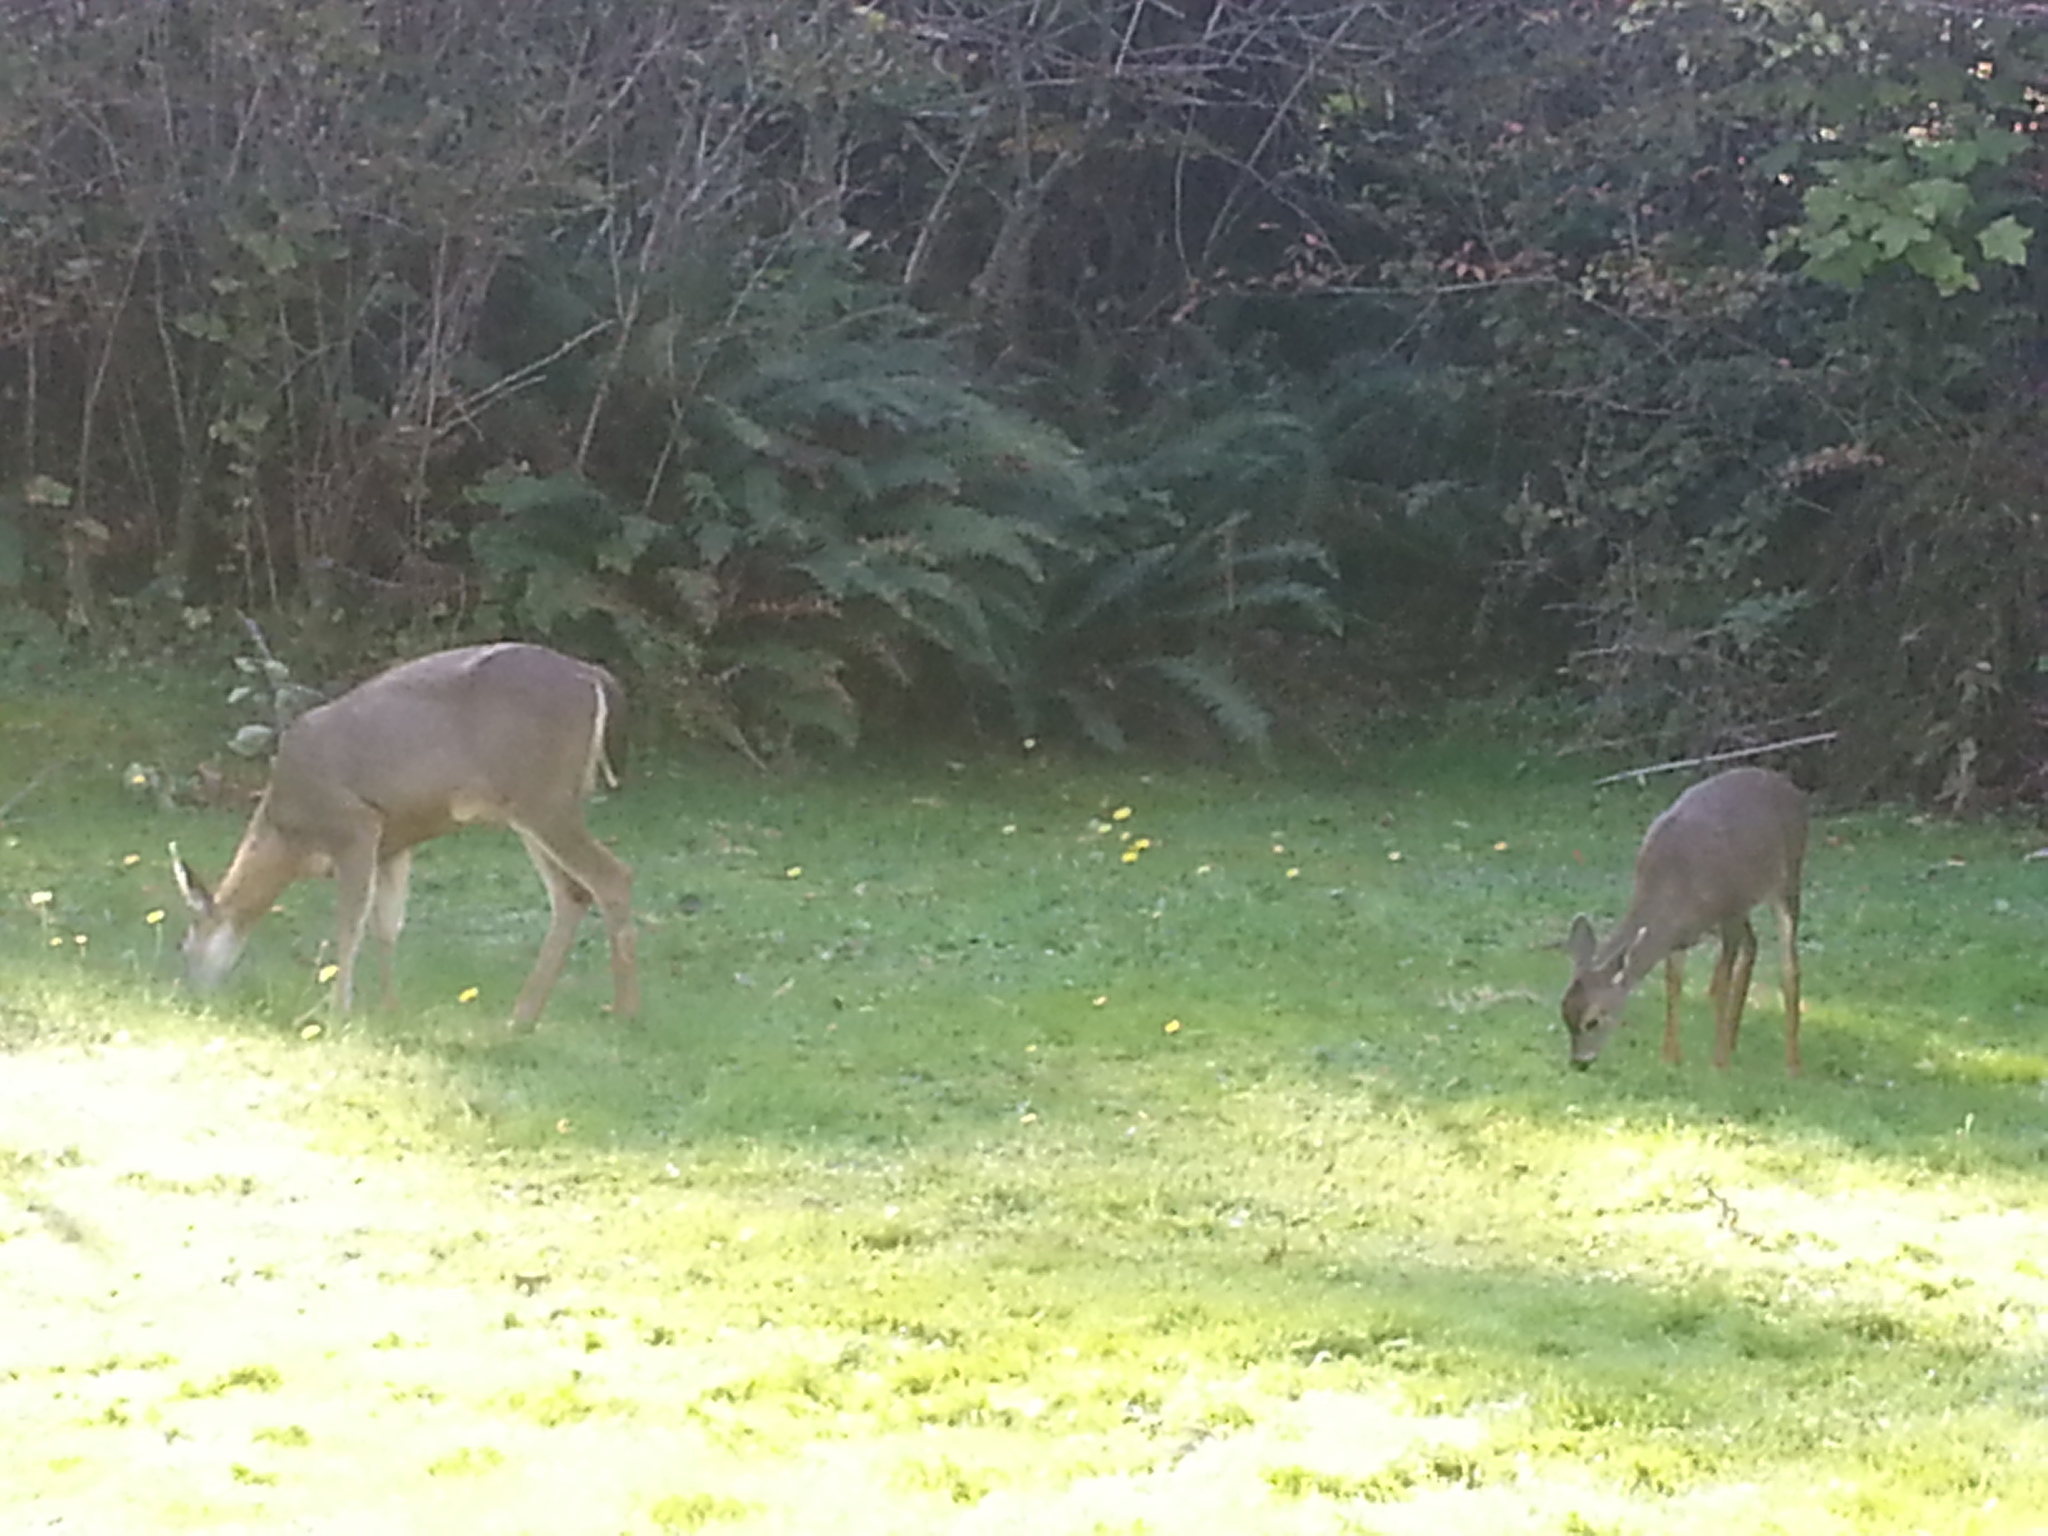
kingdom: Animalia
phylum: Chordata
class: Mammalia
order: Artiodactyla
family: Cervidae
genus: Odocoileus
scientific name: Odocoileus hemionus
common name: Mule deer
